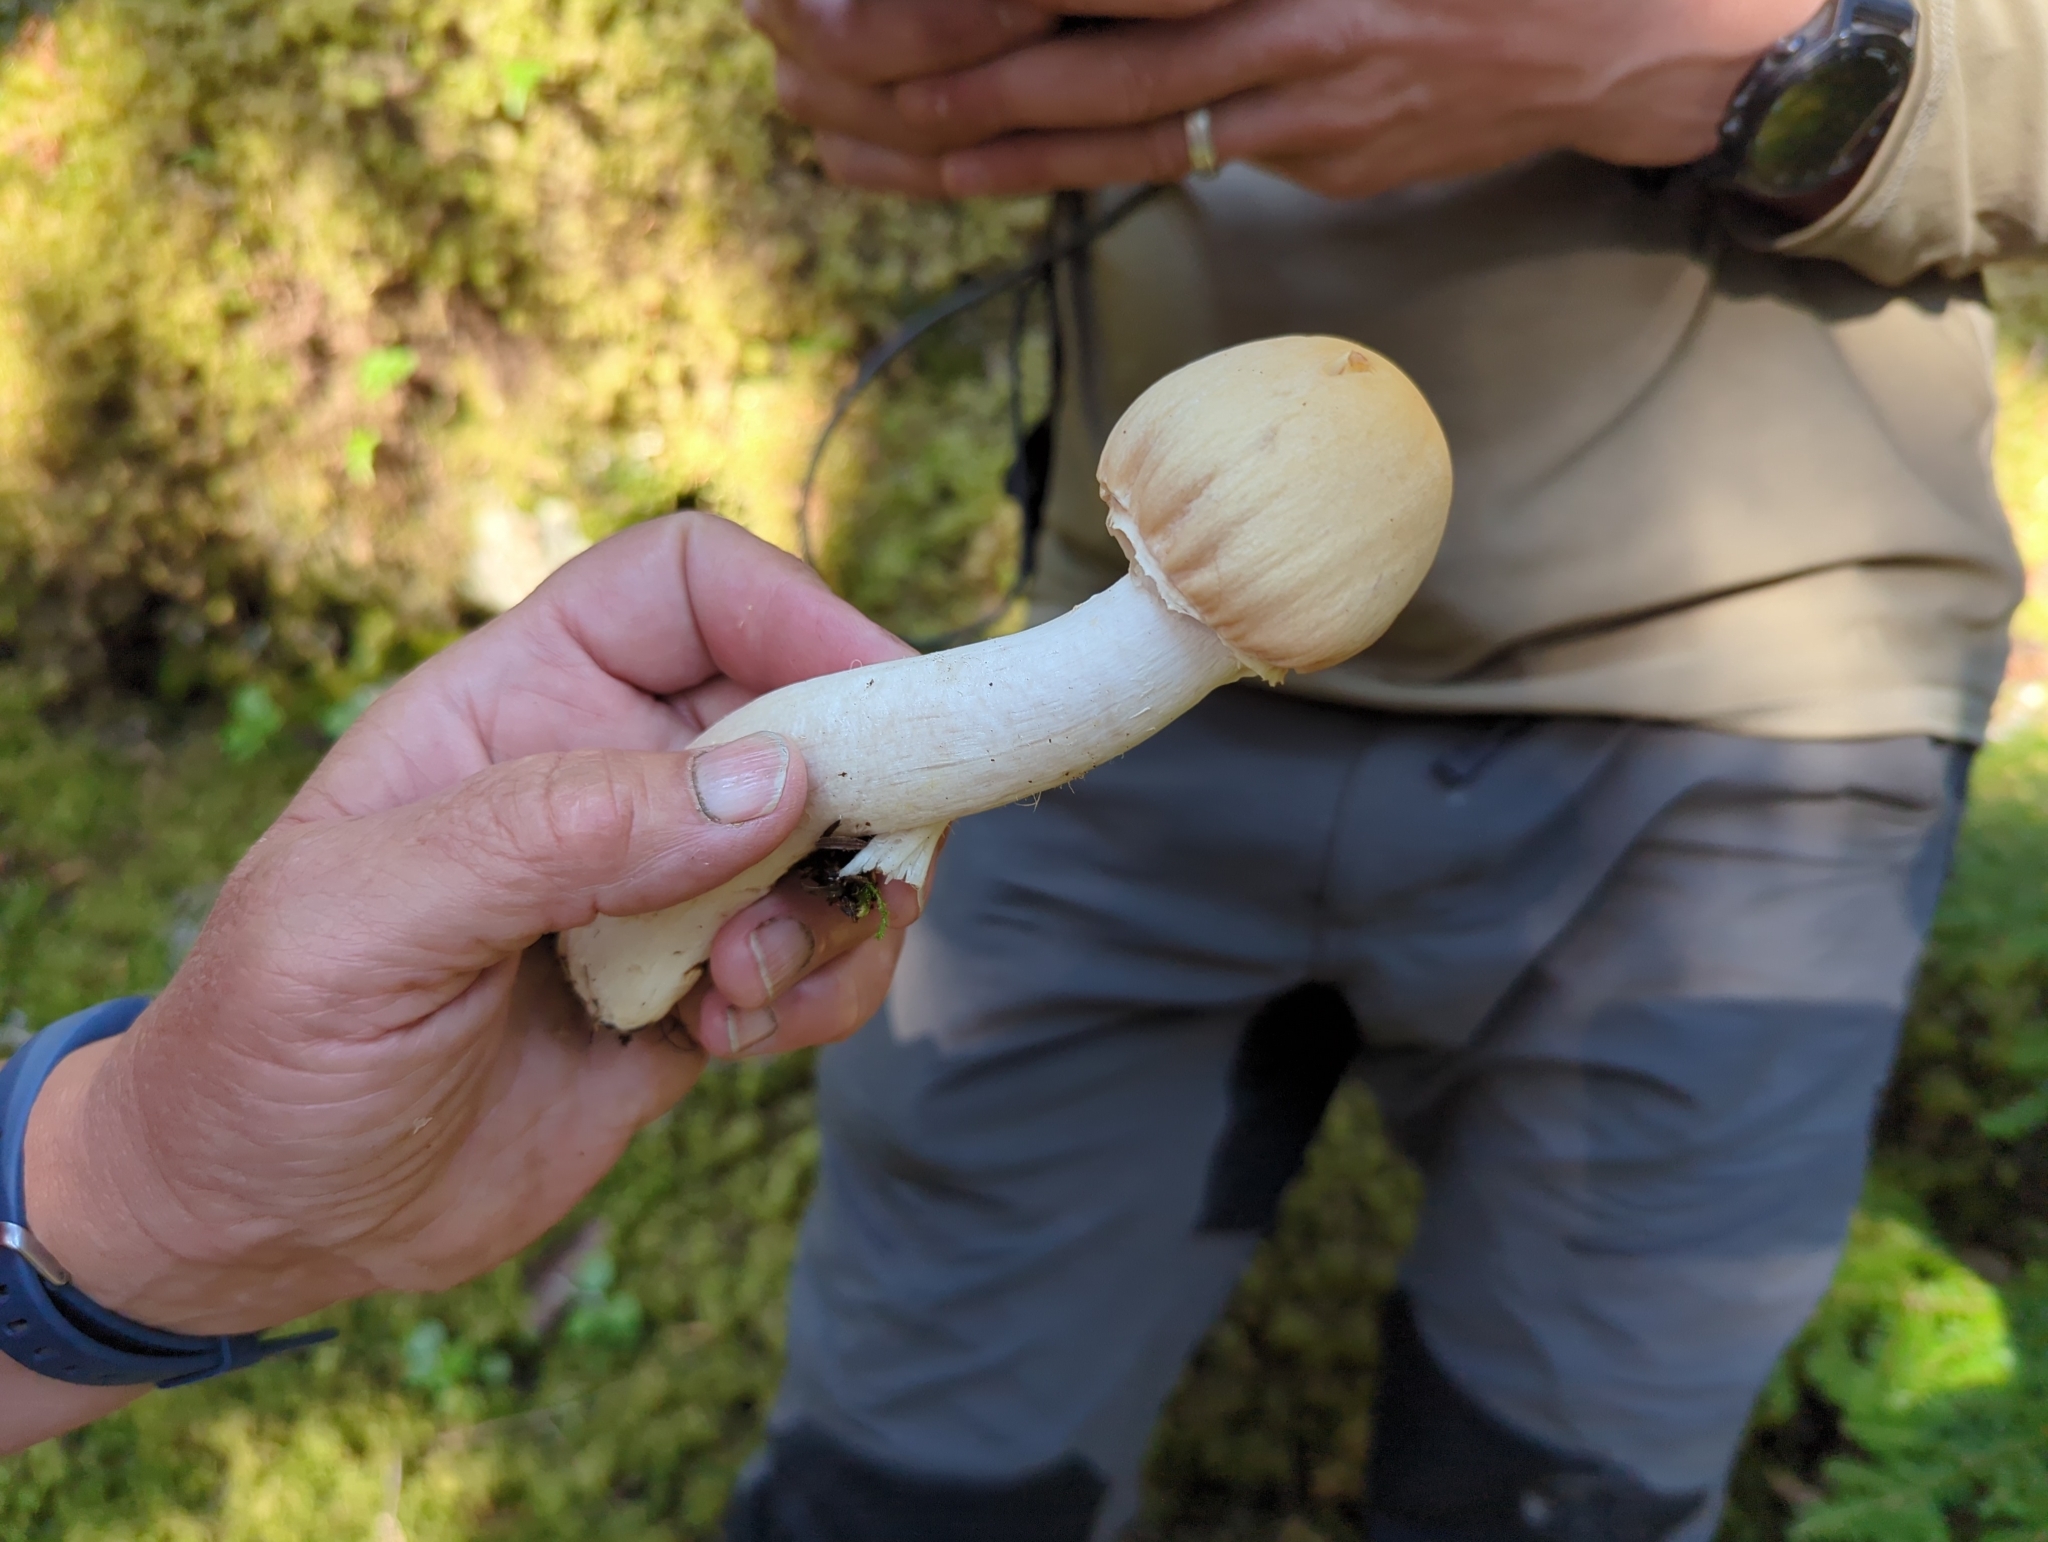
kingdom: Fungi
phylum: Basidiomycota
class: Agaricomycetes
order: Agaricales
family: Cortinariaceae
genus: Cortinarius
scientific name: Cortinarius caperatus
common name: The gypsy
